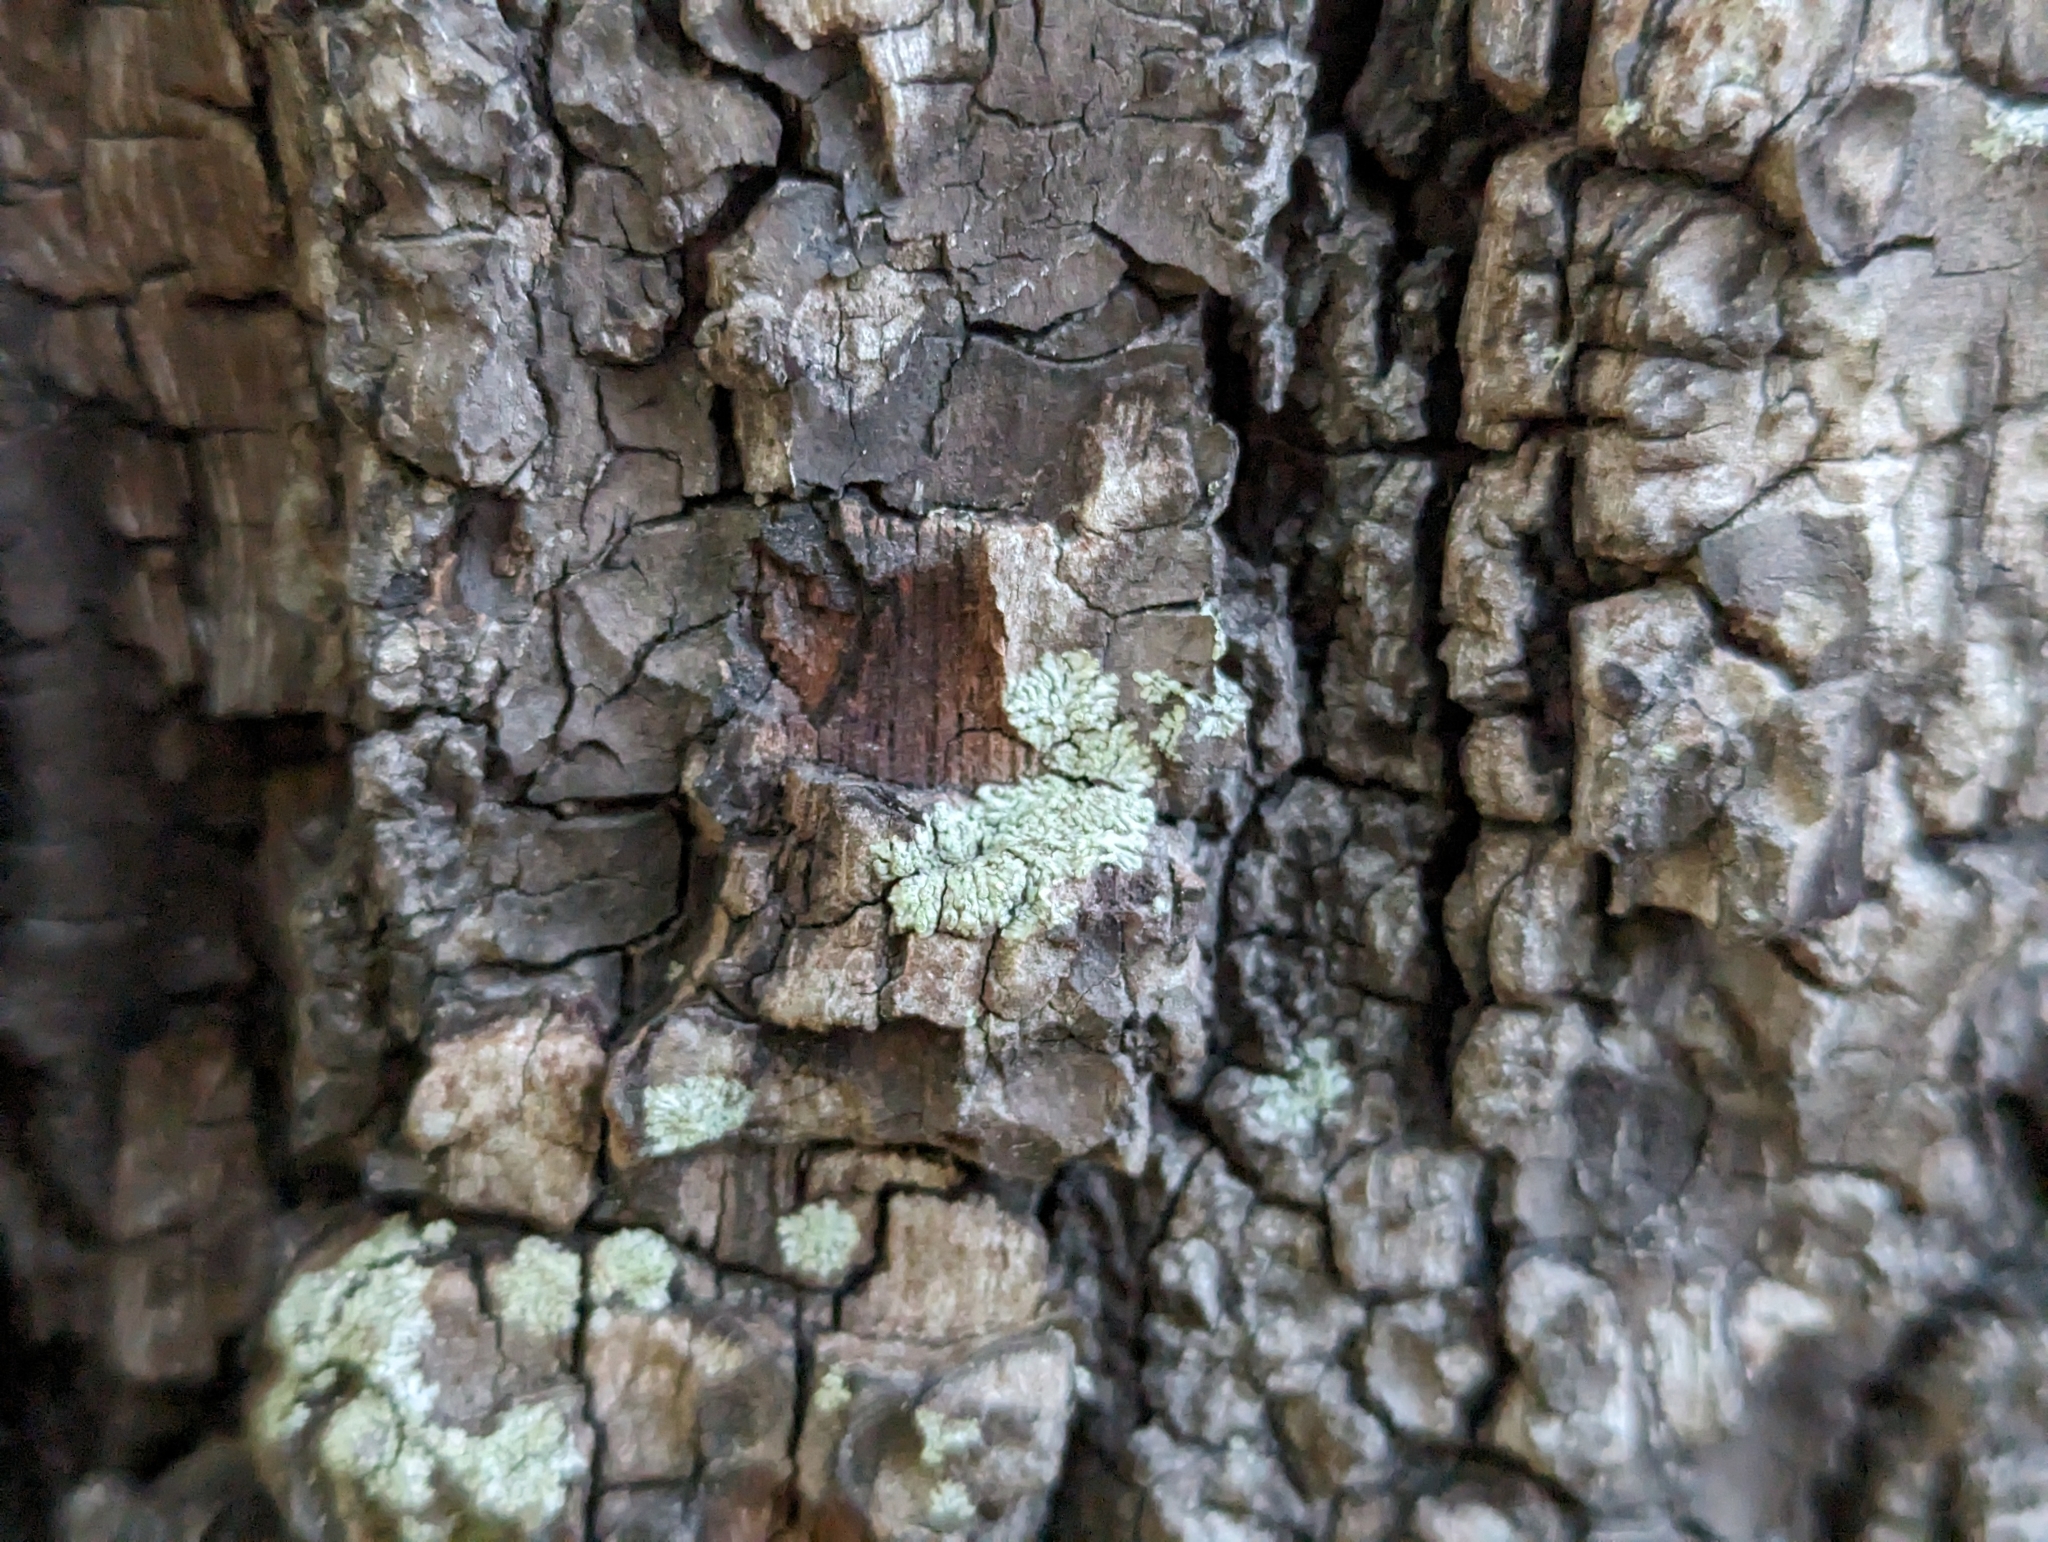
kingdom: Fungi
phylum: Ascomycota
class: Lecanoromycetes
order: Caliciales
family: Physciaceae
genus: Hyperphyscia
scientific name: Hyperphyscia adglutinata
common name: Grainy shadow-crust lichen
